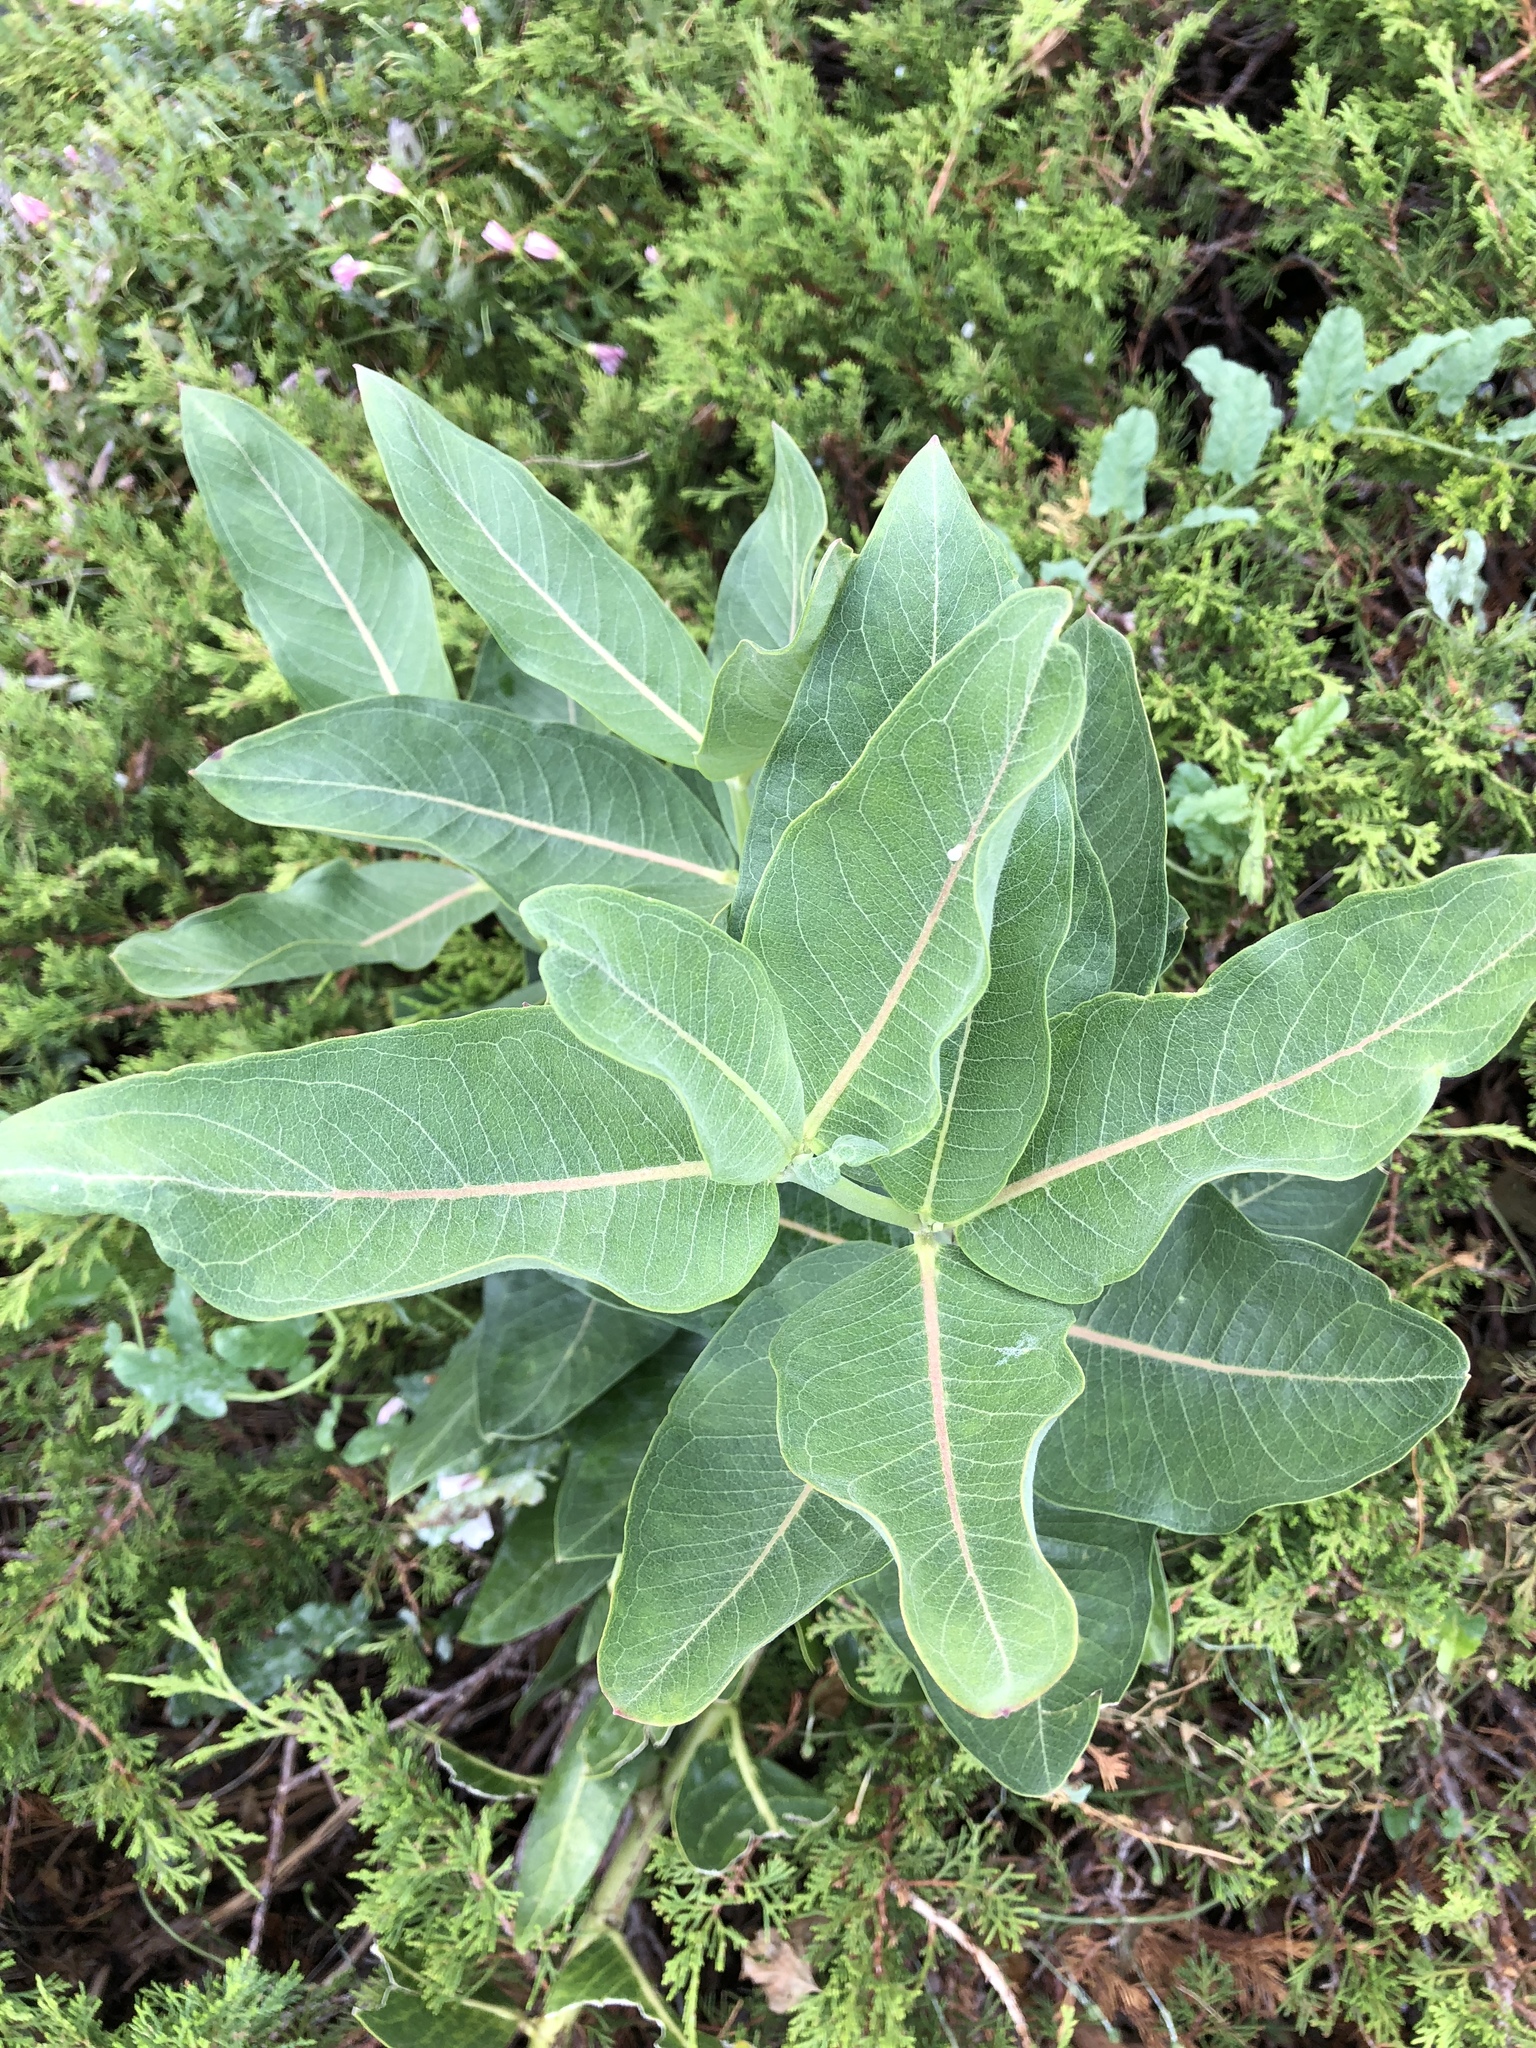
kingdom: Plantae
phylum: Tracheophyta
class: Magnoliopsida
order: Gentianales
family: Apocynaceae
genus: Asclepias
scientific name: Asclepias speciosa
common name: Showy milkweed
